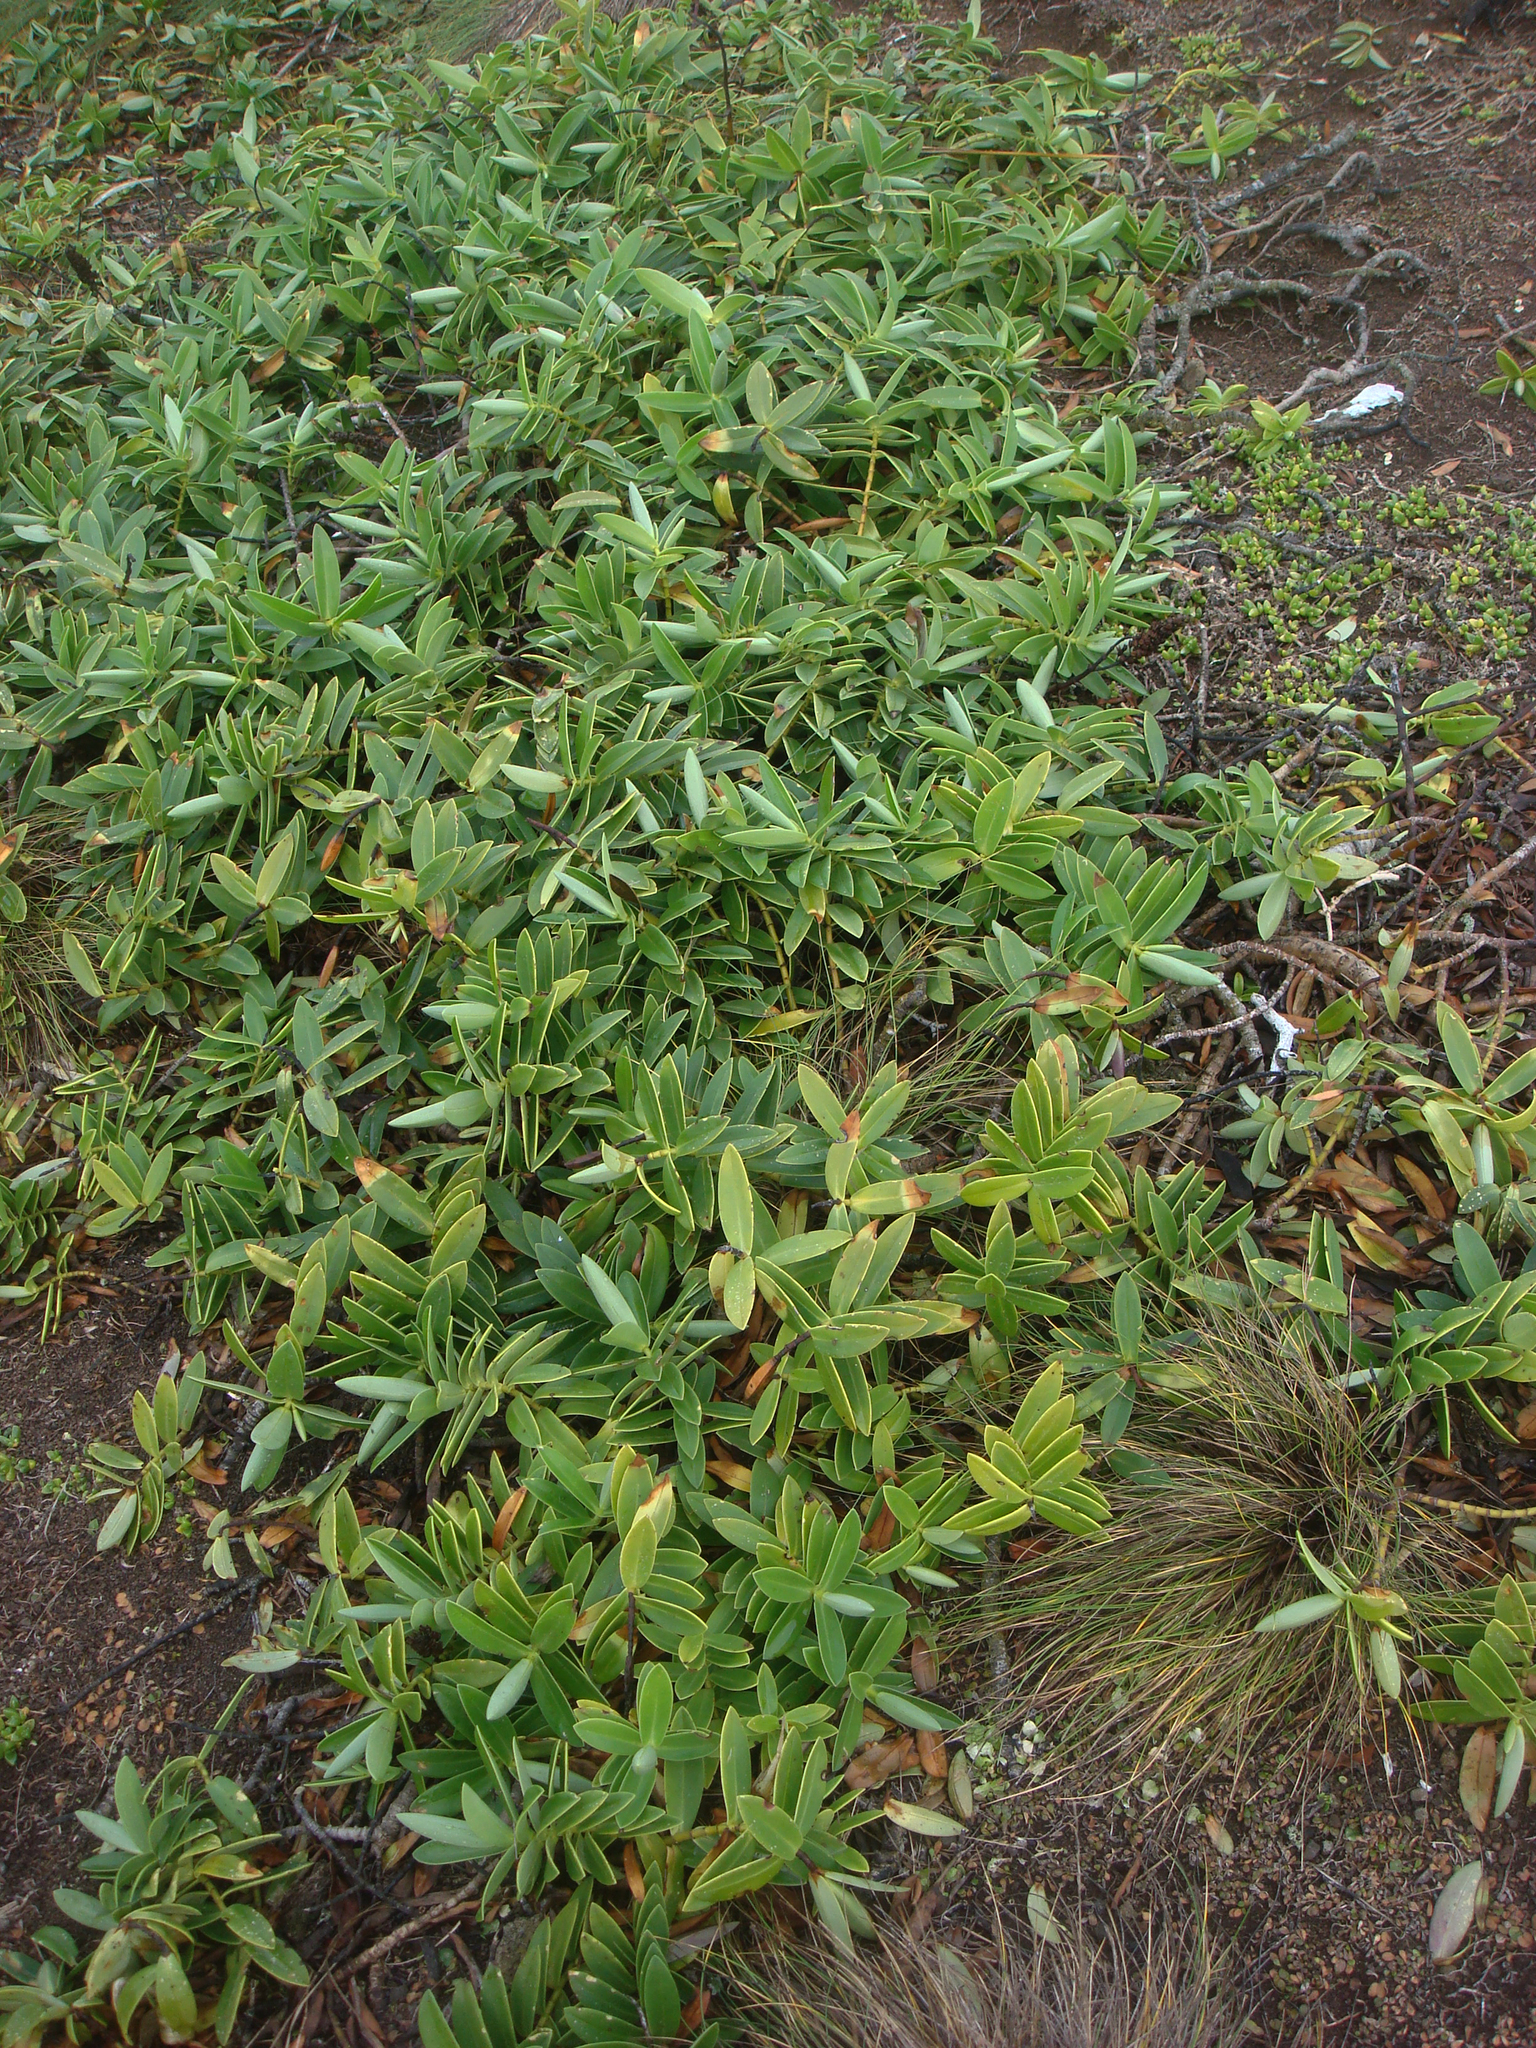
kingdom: Plantae
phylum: Tracheophyta
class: Magnoliopsida
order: Lamiales
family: Plantaginaceae
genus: Veronica
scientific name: Veronica
